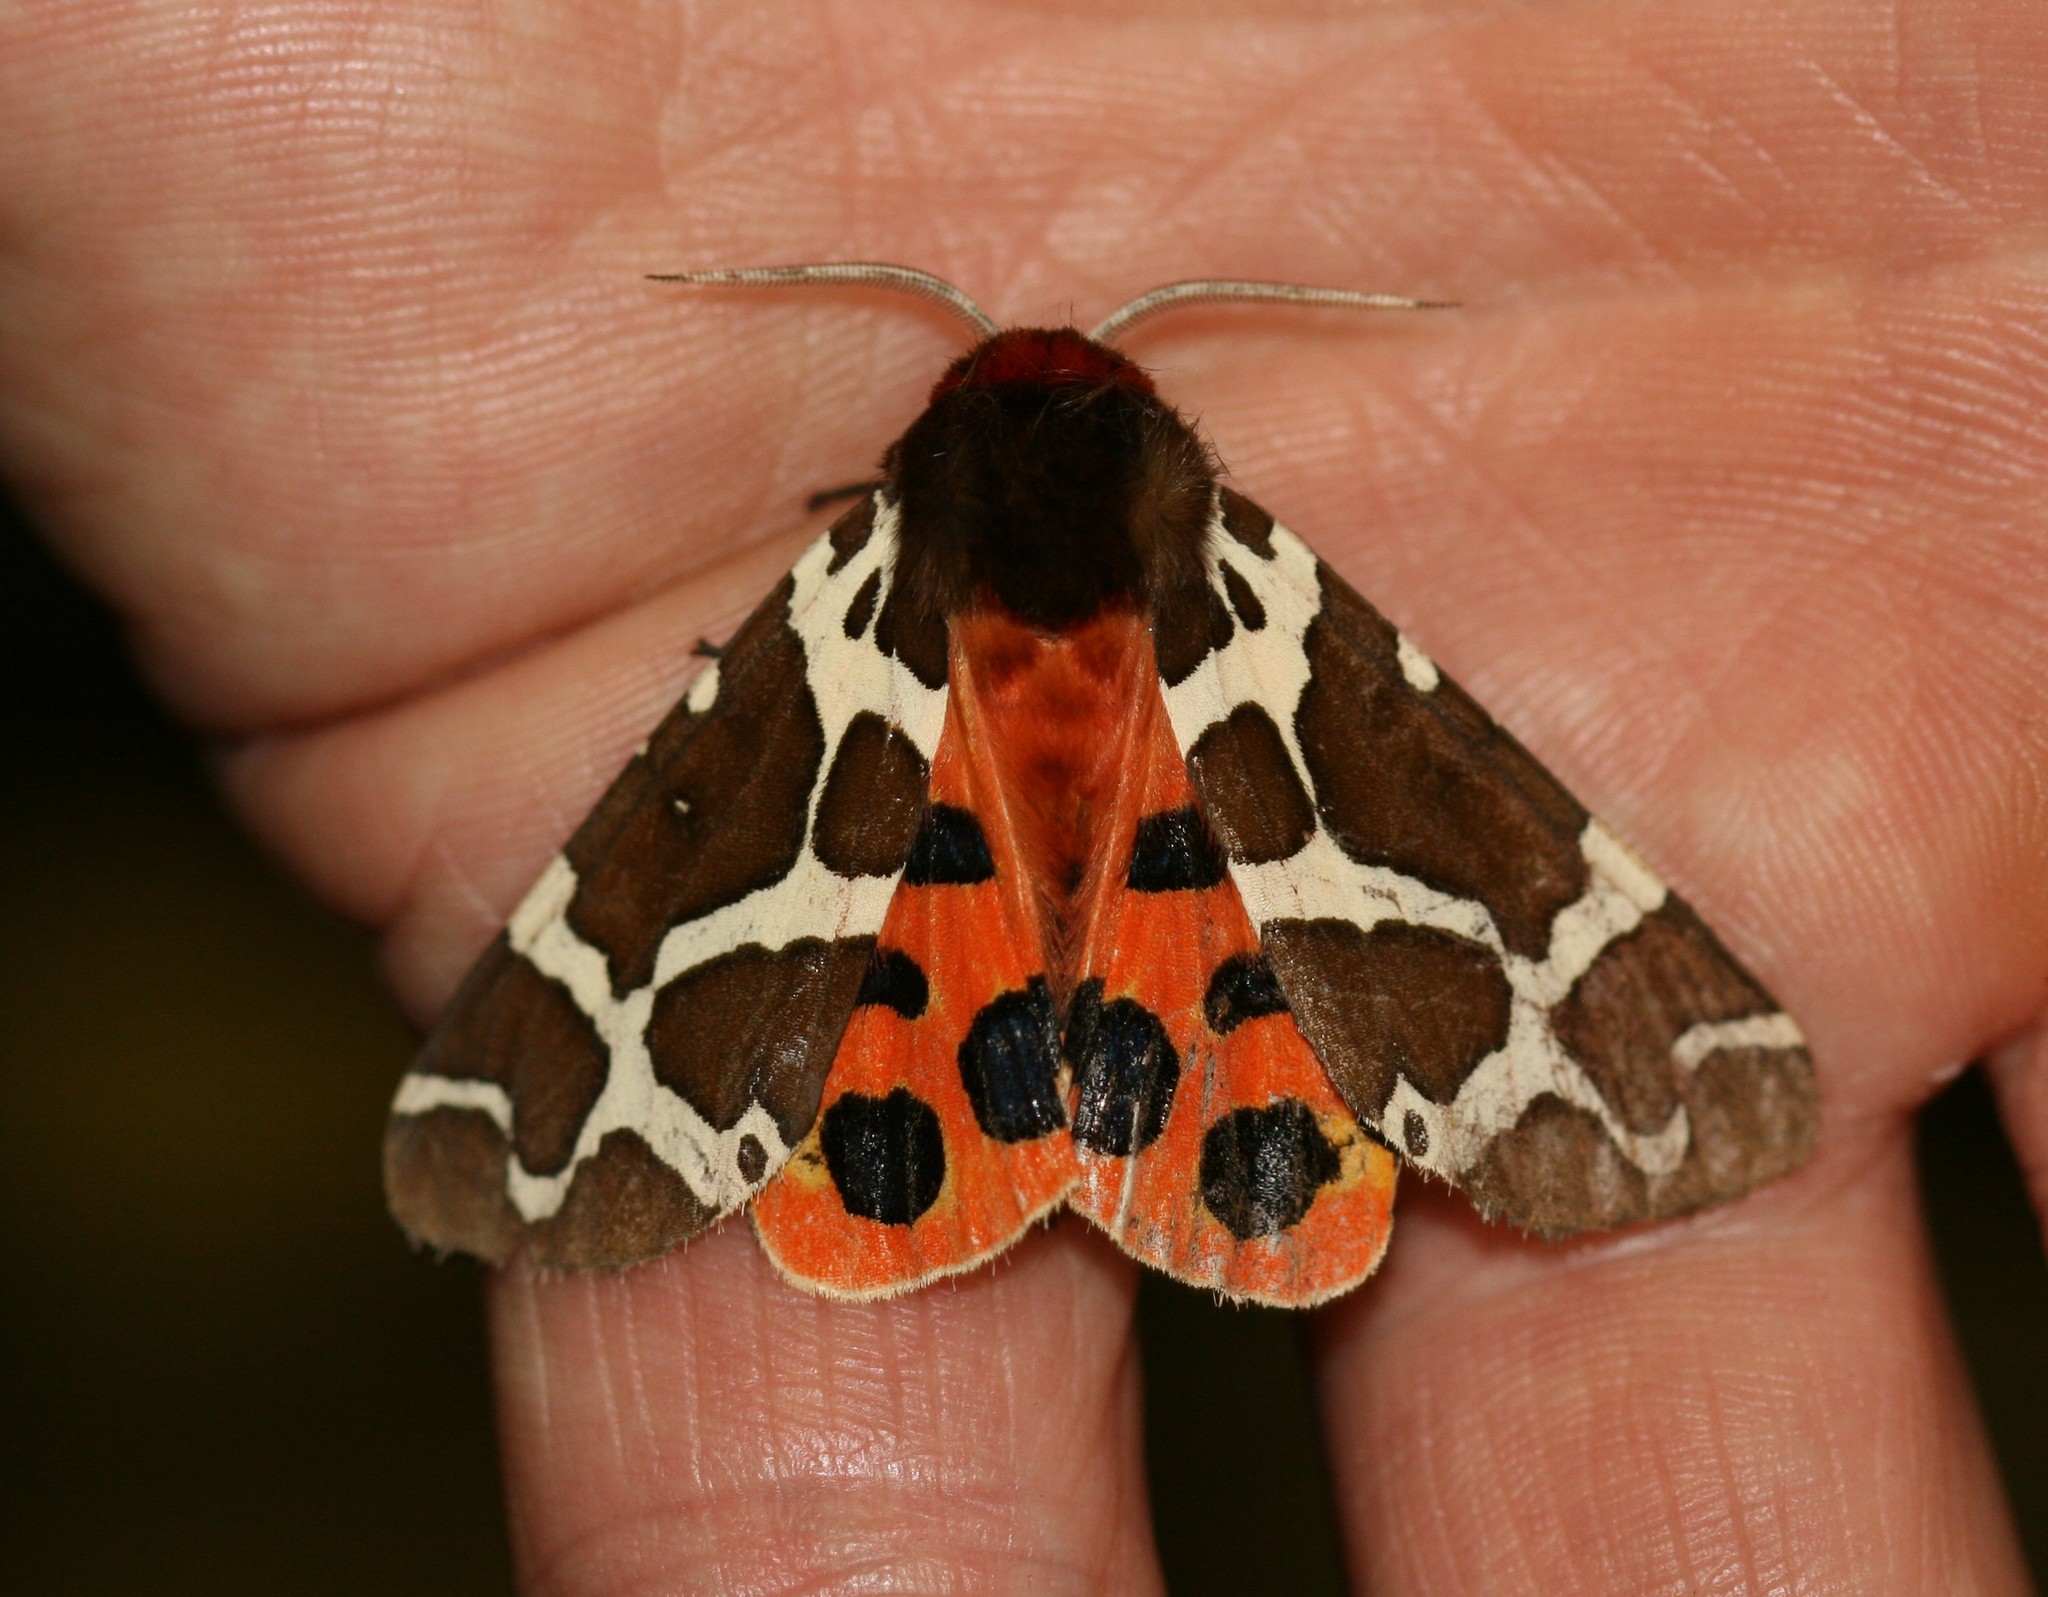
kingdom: Animalia
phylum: Arthropoda
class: Insecta
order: Lepidoptera
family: Erebidae
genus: Arctia
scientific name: Arctia caja
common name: Garden tiger
